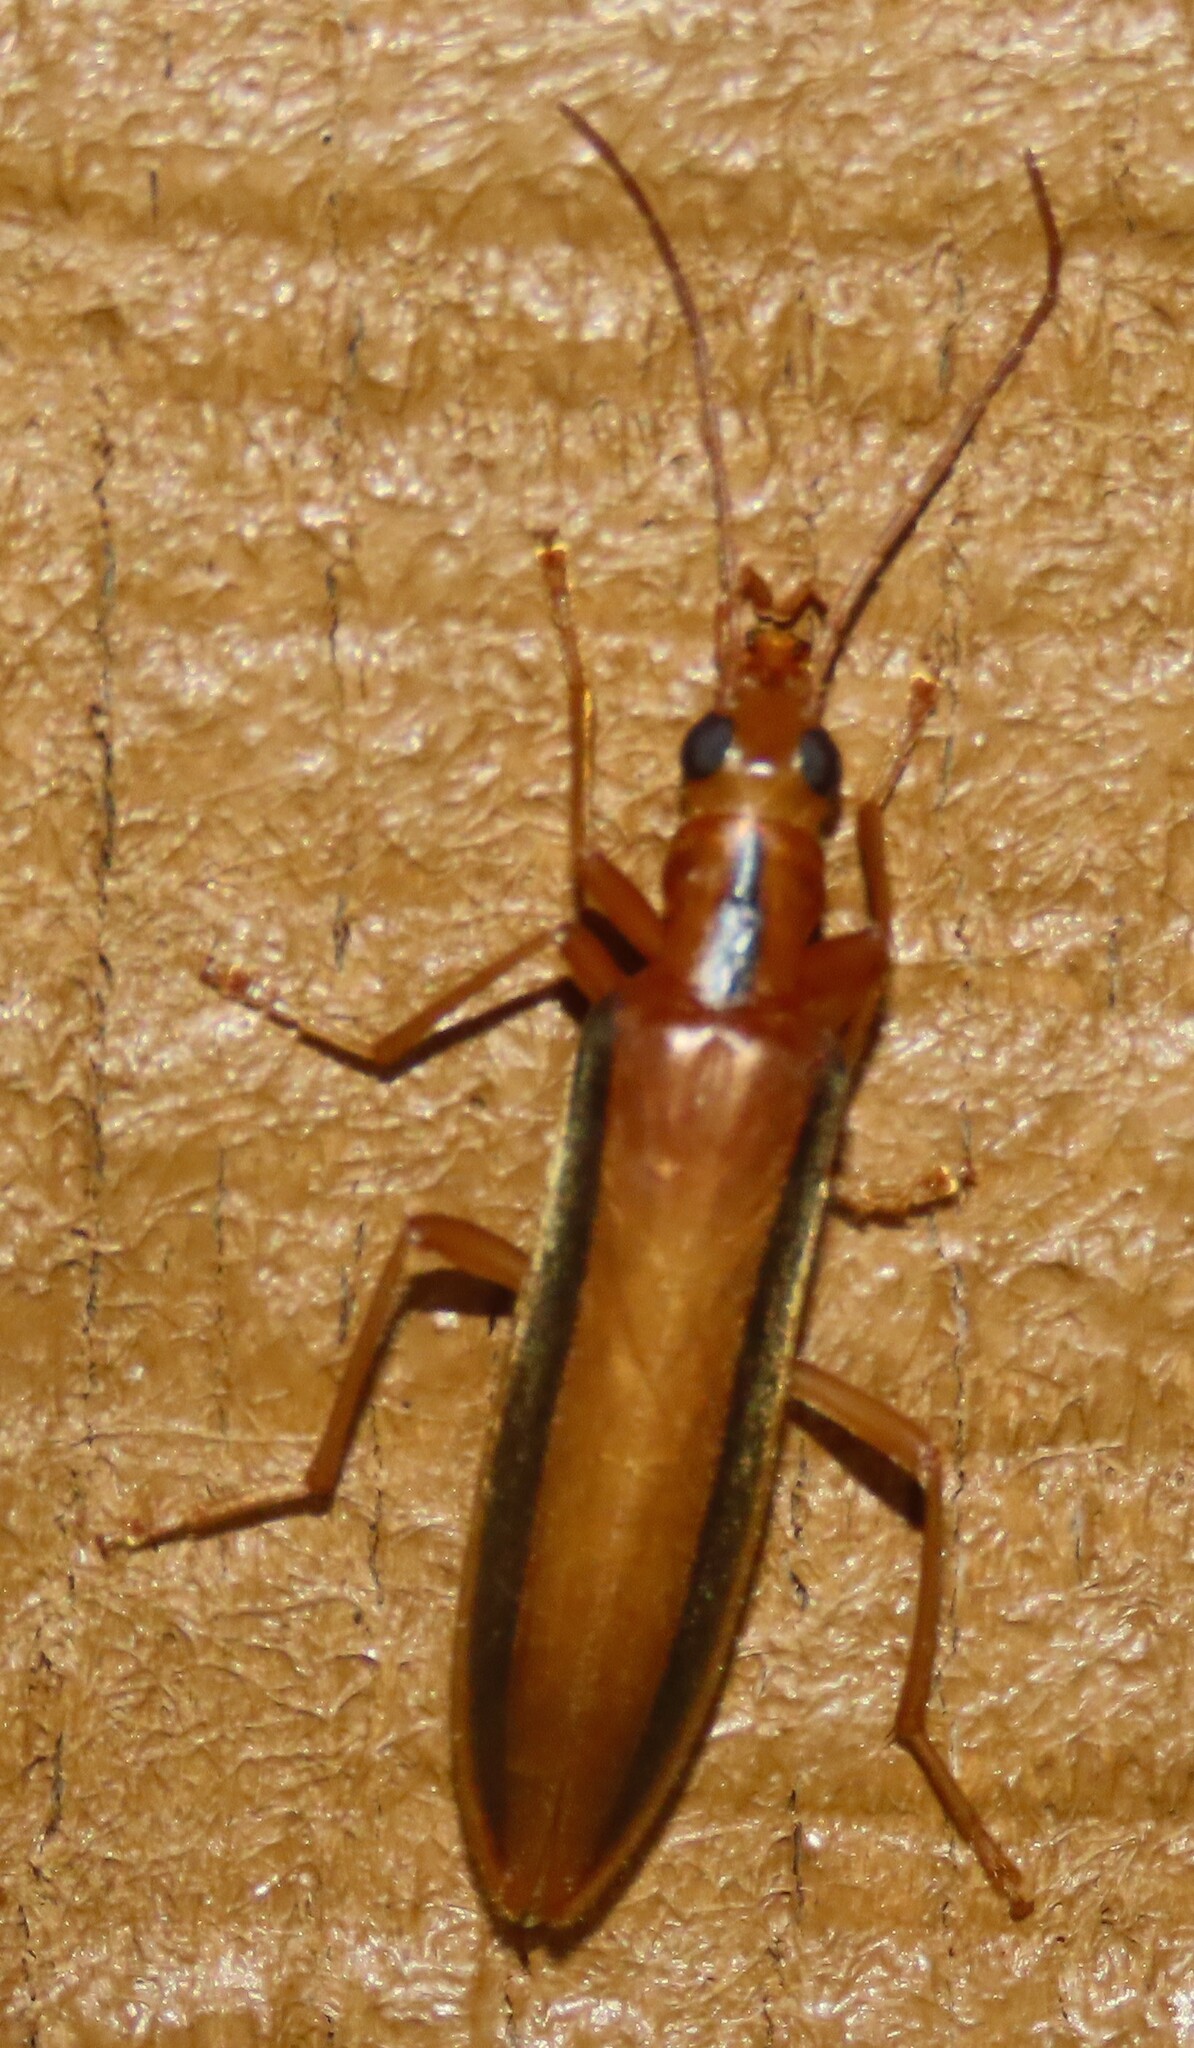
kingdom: Animalia
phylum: Arthropoda
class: Insecta
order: Coleoptera
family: Oedemeridae
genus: Thelyphassa
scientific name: Thelyphassa
